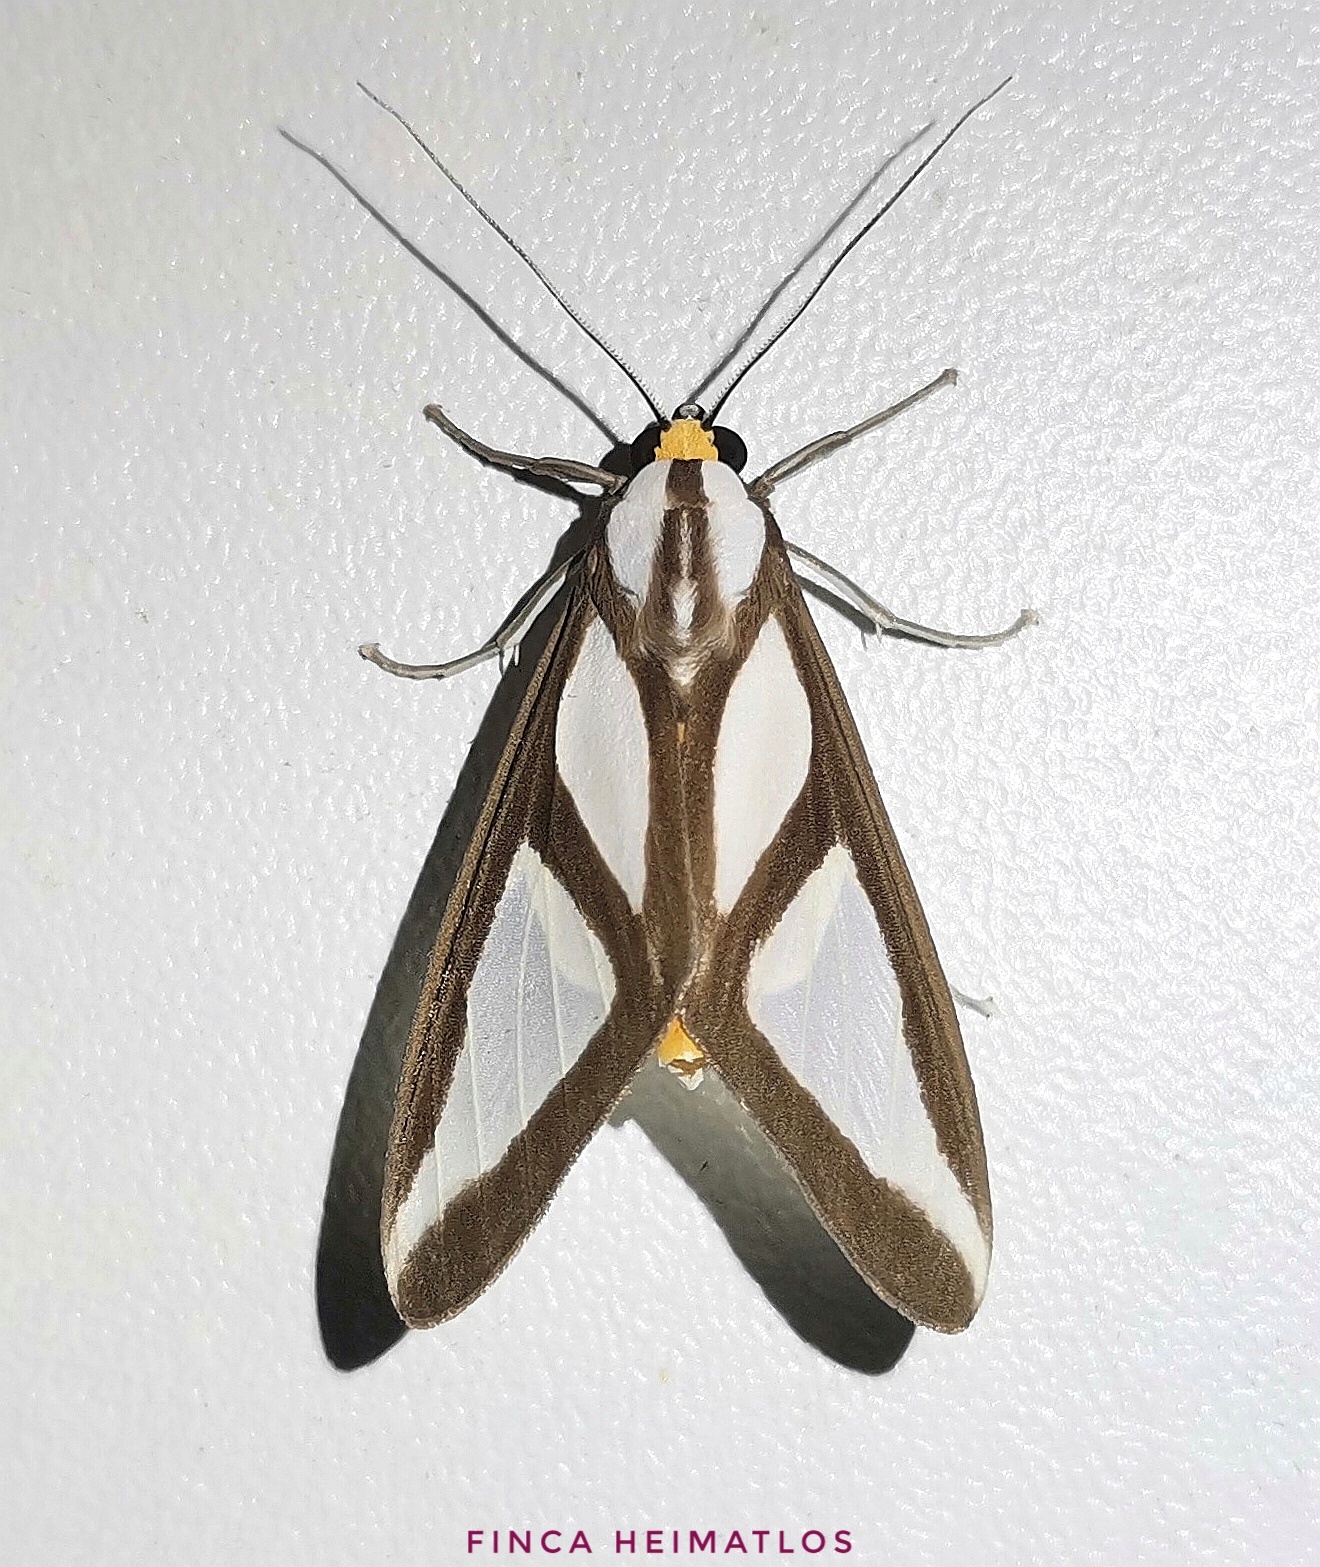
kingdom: Animalia
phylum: Arthropoda
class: Insecta
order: Lepidoptera
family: Erebidae
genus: Robinsonia
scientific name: Robinsonia dewitzi
